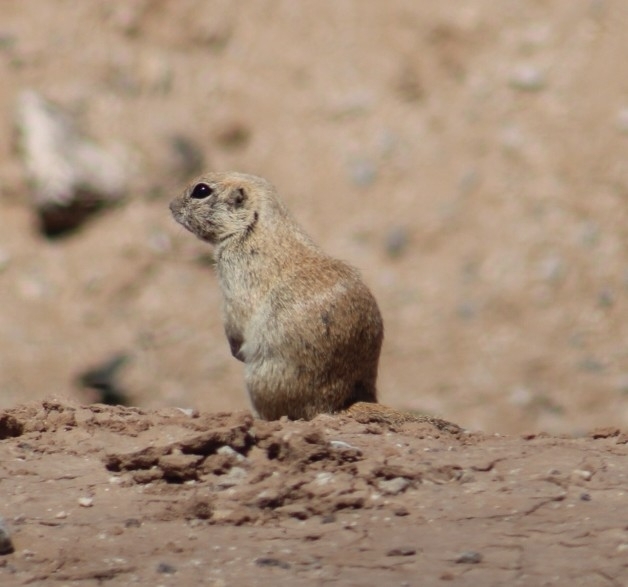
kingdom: Animalia
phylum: Chordata
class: Mammalia
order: Rodentia
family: Sciuridae
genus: Xerospermophilus
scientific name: Xerospermophilus tereticaudus
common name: Round-tailed ground squirrel
